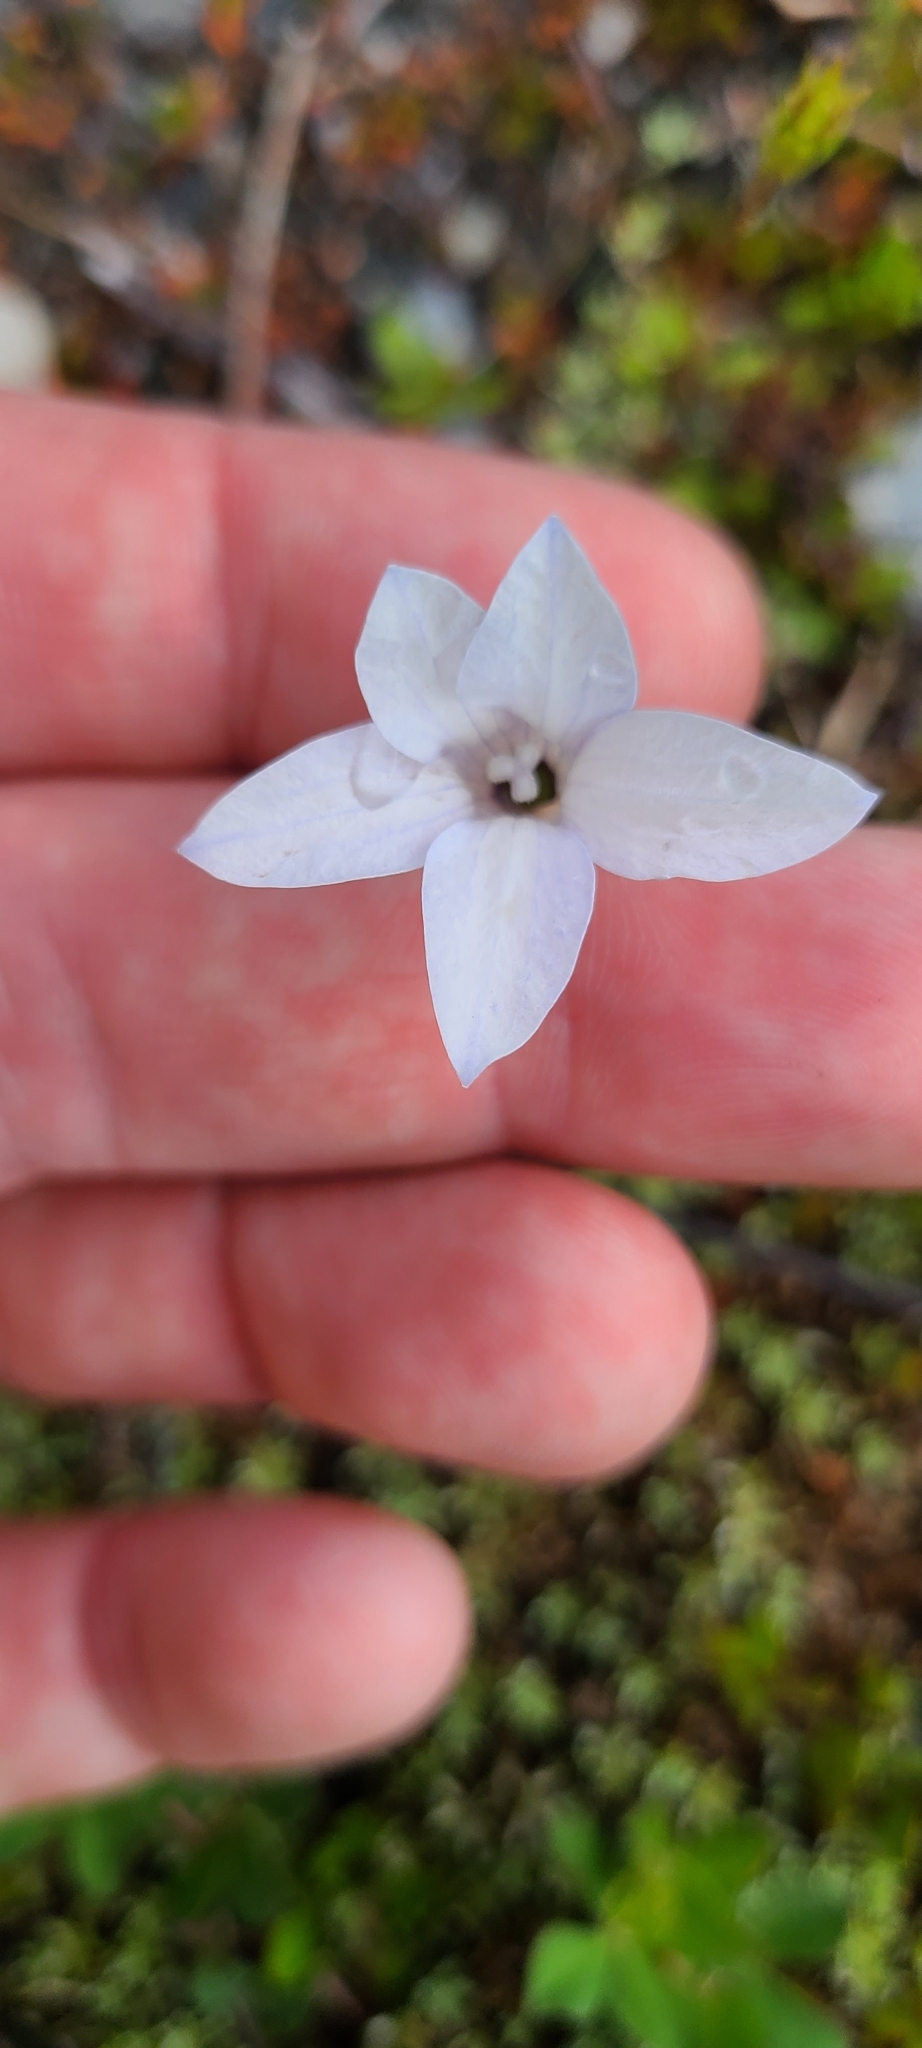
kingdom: Plantae
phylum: Tracheophyta
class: Magnoliopsida
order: Asterales
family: Campanulaceae
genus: Wahlenbergia
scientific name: Wahlenbergia albomarginata
